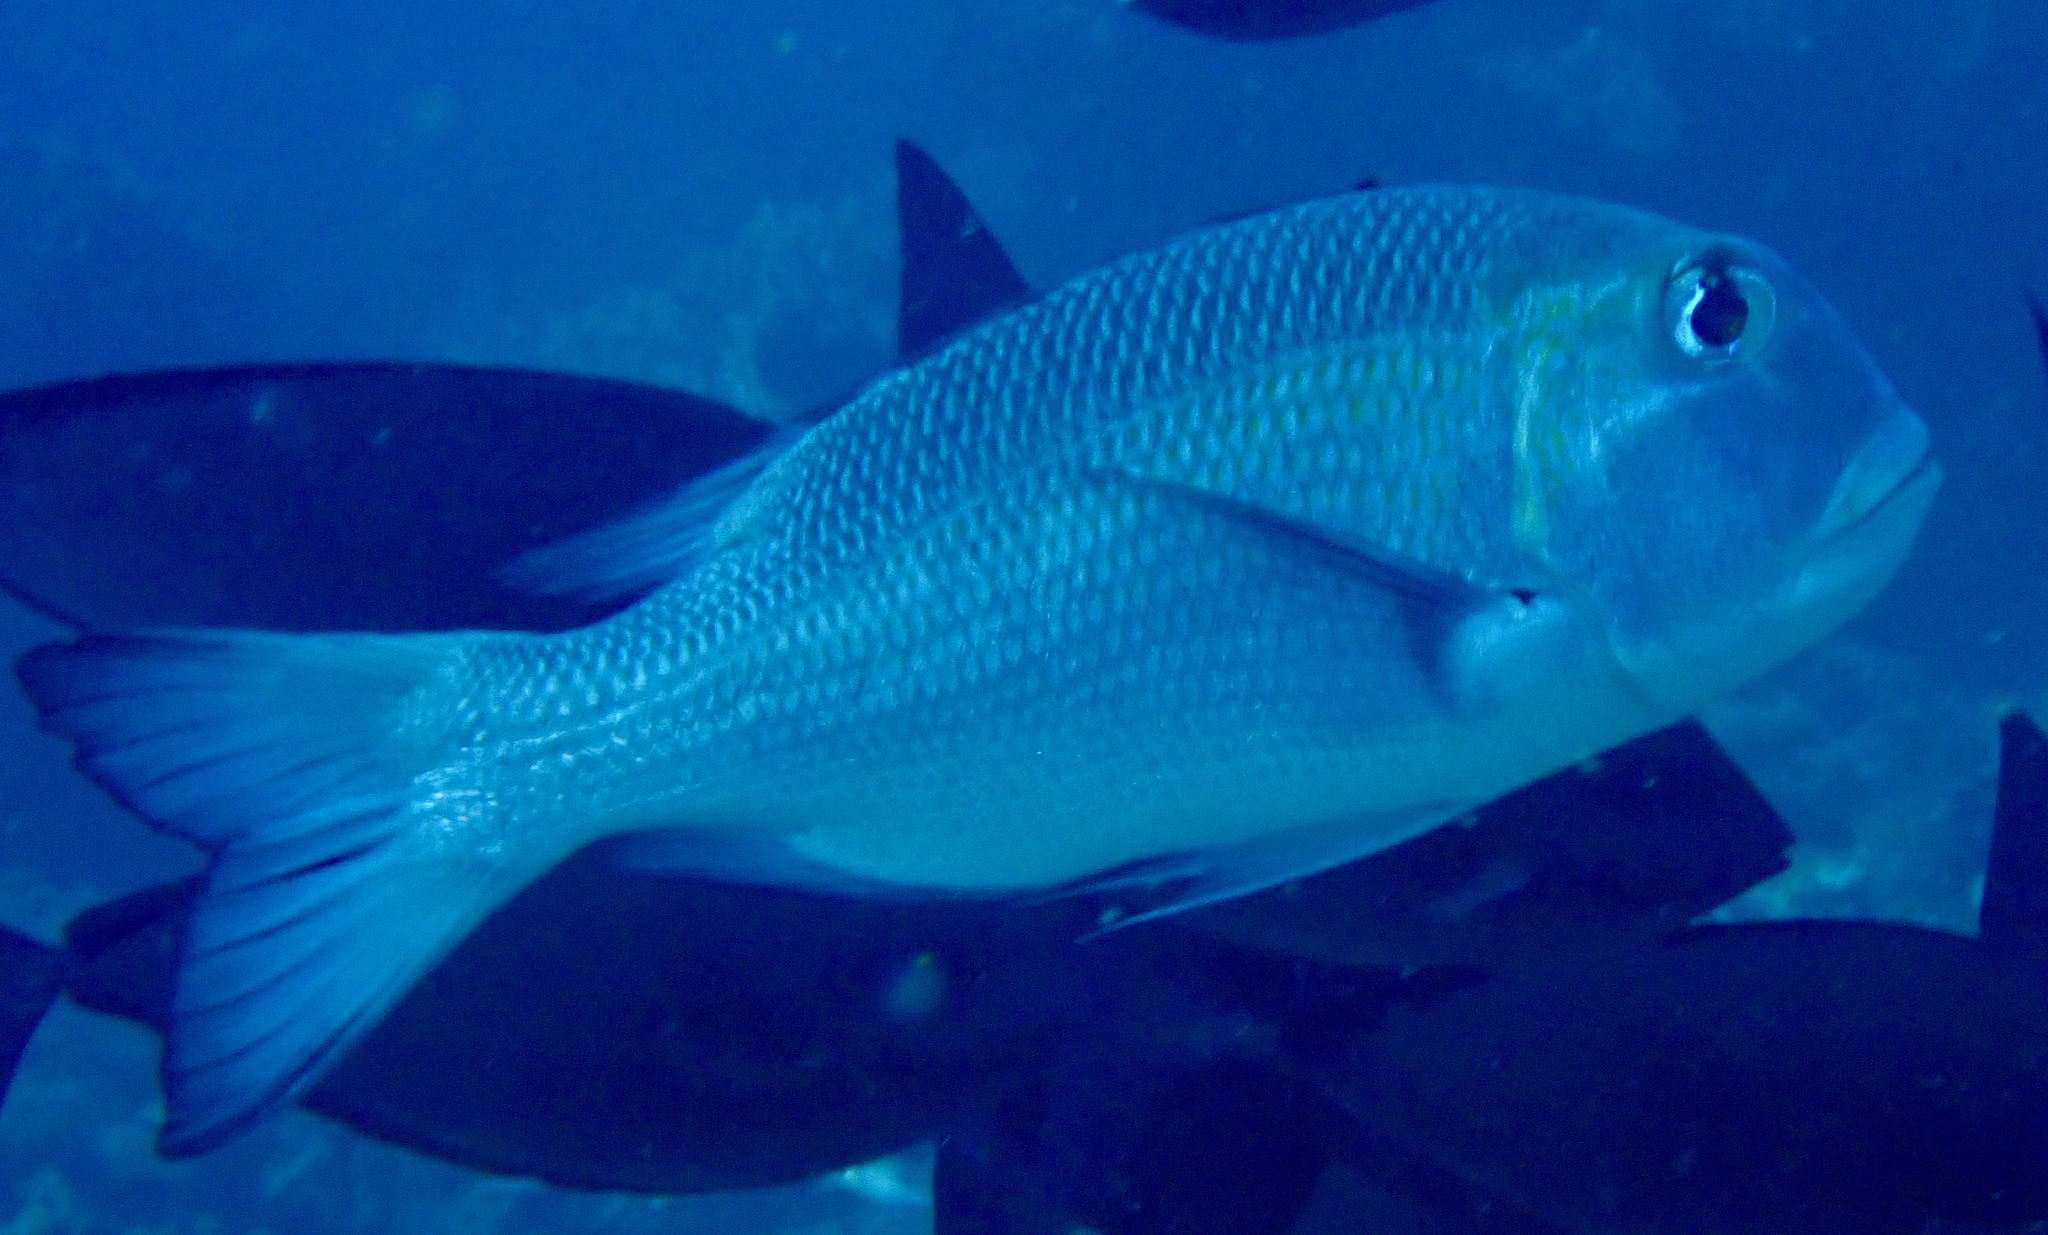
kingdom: Animalia
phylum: Chordata
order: Perciformes
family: Lethrinidae
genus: Monotaxis
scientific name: Monotaxis grandoculis
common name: Bigeye emperor
